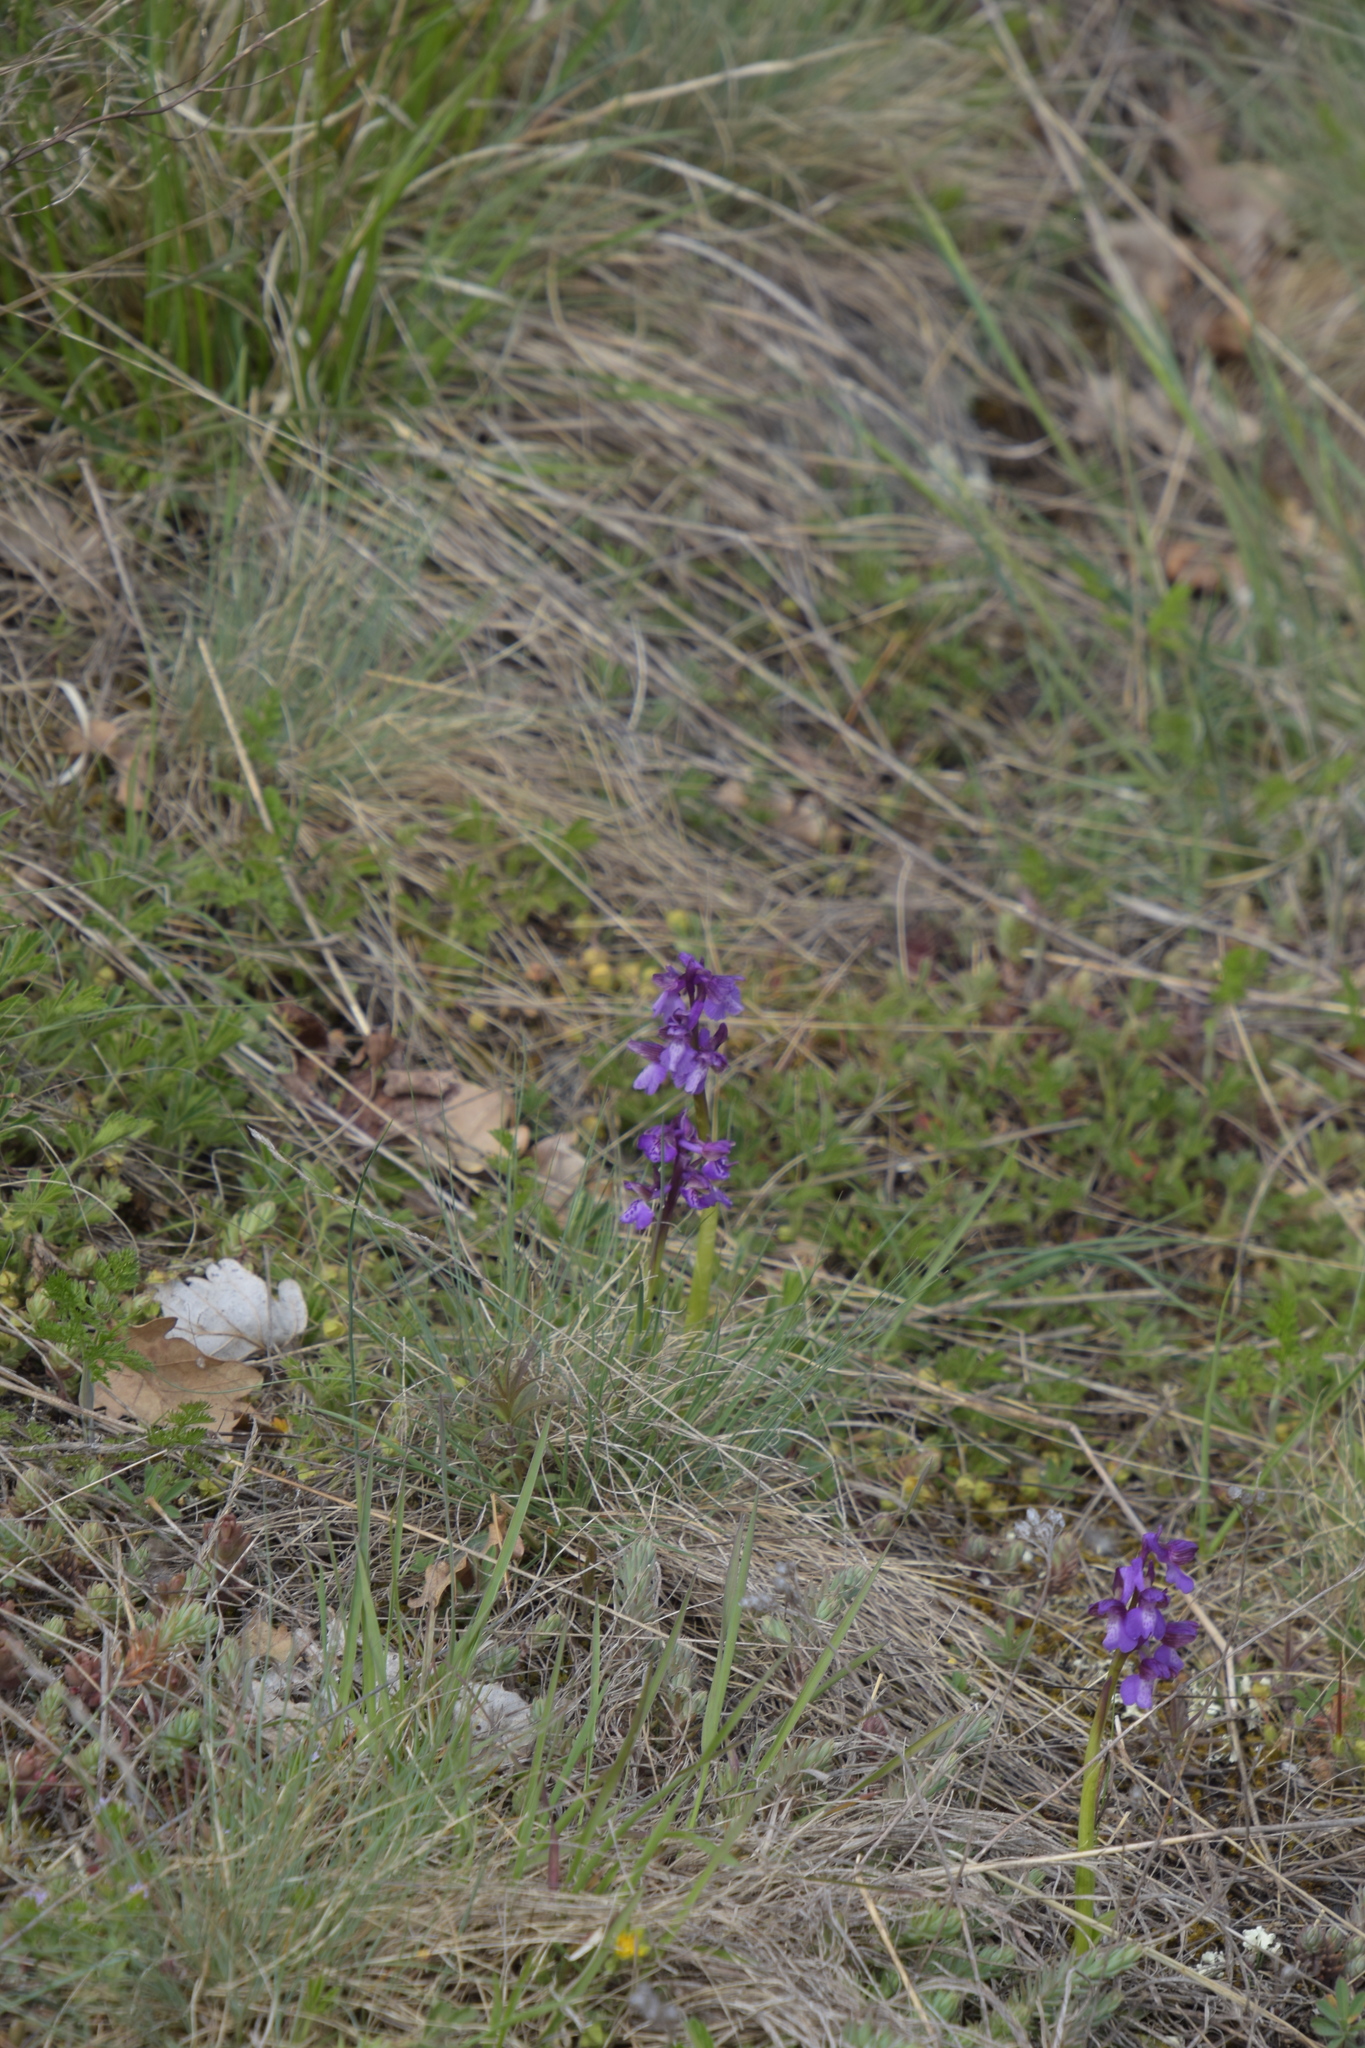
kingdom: Plantae
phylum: Tracheophyta
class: Liliopsida
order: Asparagales
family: Orchidaceae
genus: Anacamptis
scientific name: Anacamptis morio
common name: Green-winged orchid
